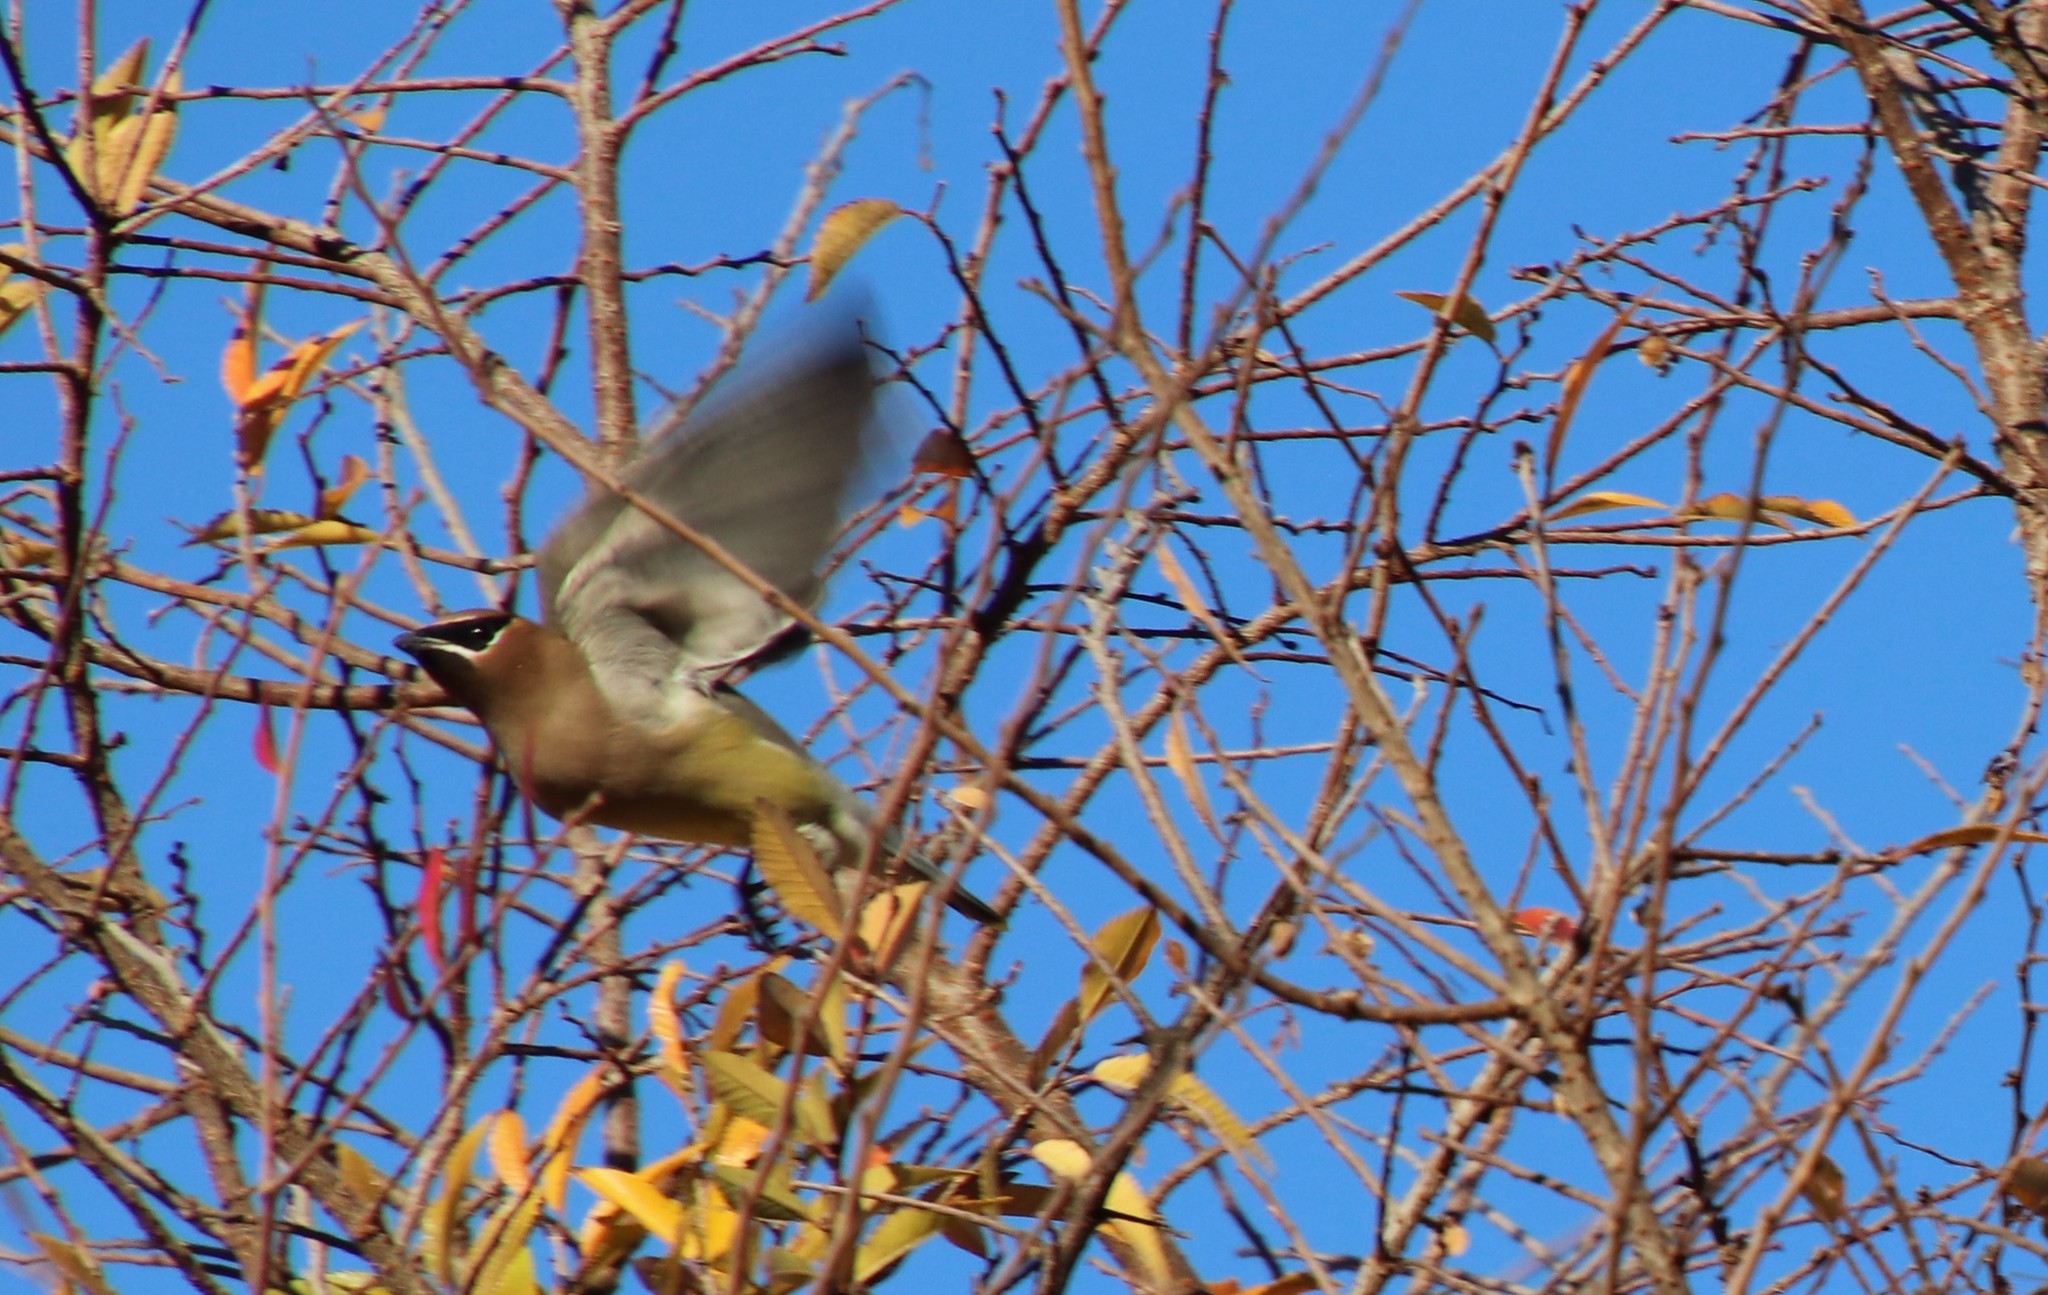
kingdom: Animalia
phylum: Chordata
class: Aves
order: Passeriformes
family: Bombycillidae
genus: Bombycilla
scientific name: Bombycilla cedrorum
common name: Cedar waxwing
